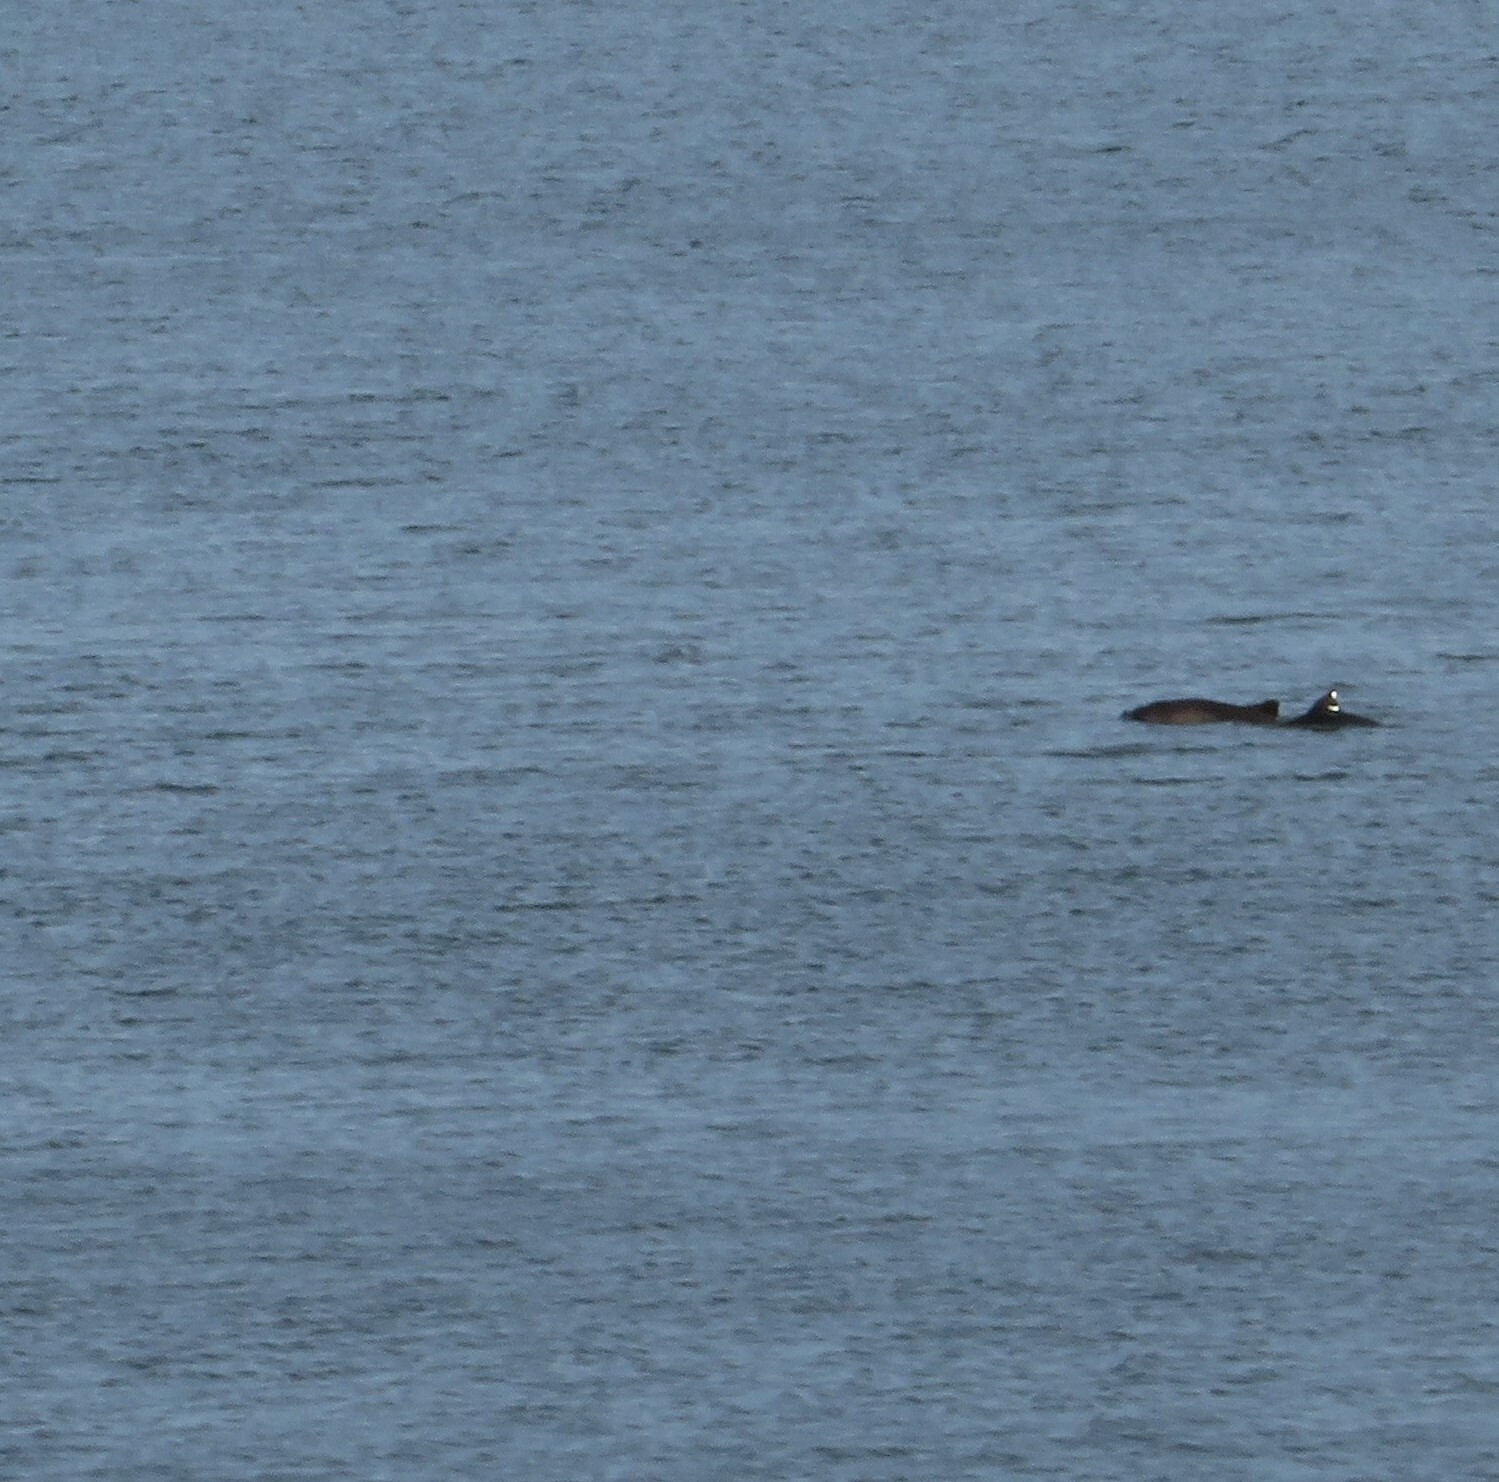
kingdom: Animalia
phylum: Chordata
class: Mammalia
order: Cetacea
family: Phocoenidae
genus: Phocoena
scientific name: Phocoena phocoena
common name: Harbor porpoise
